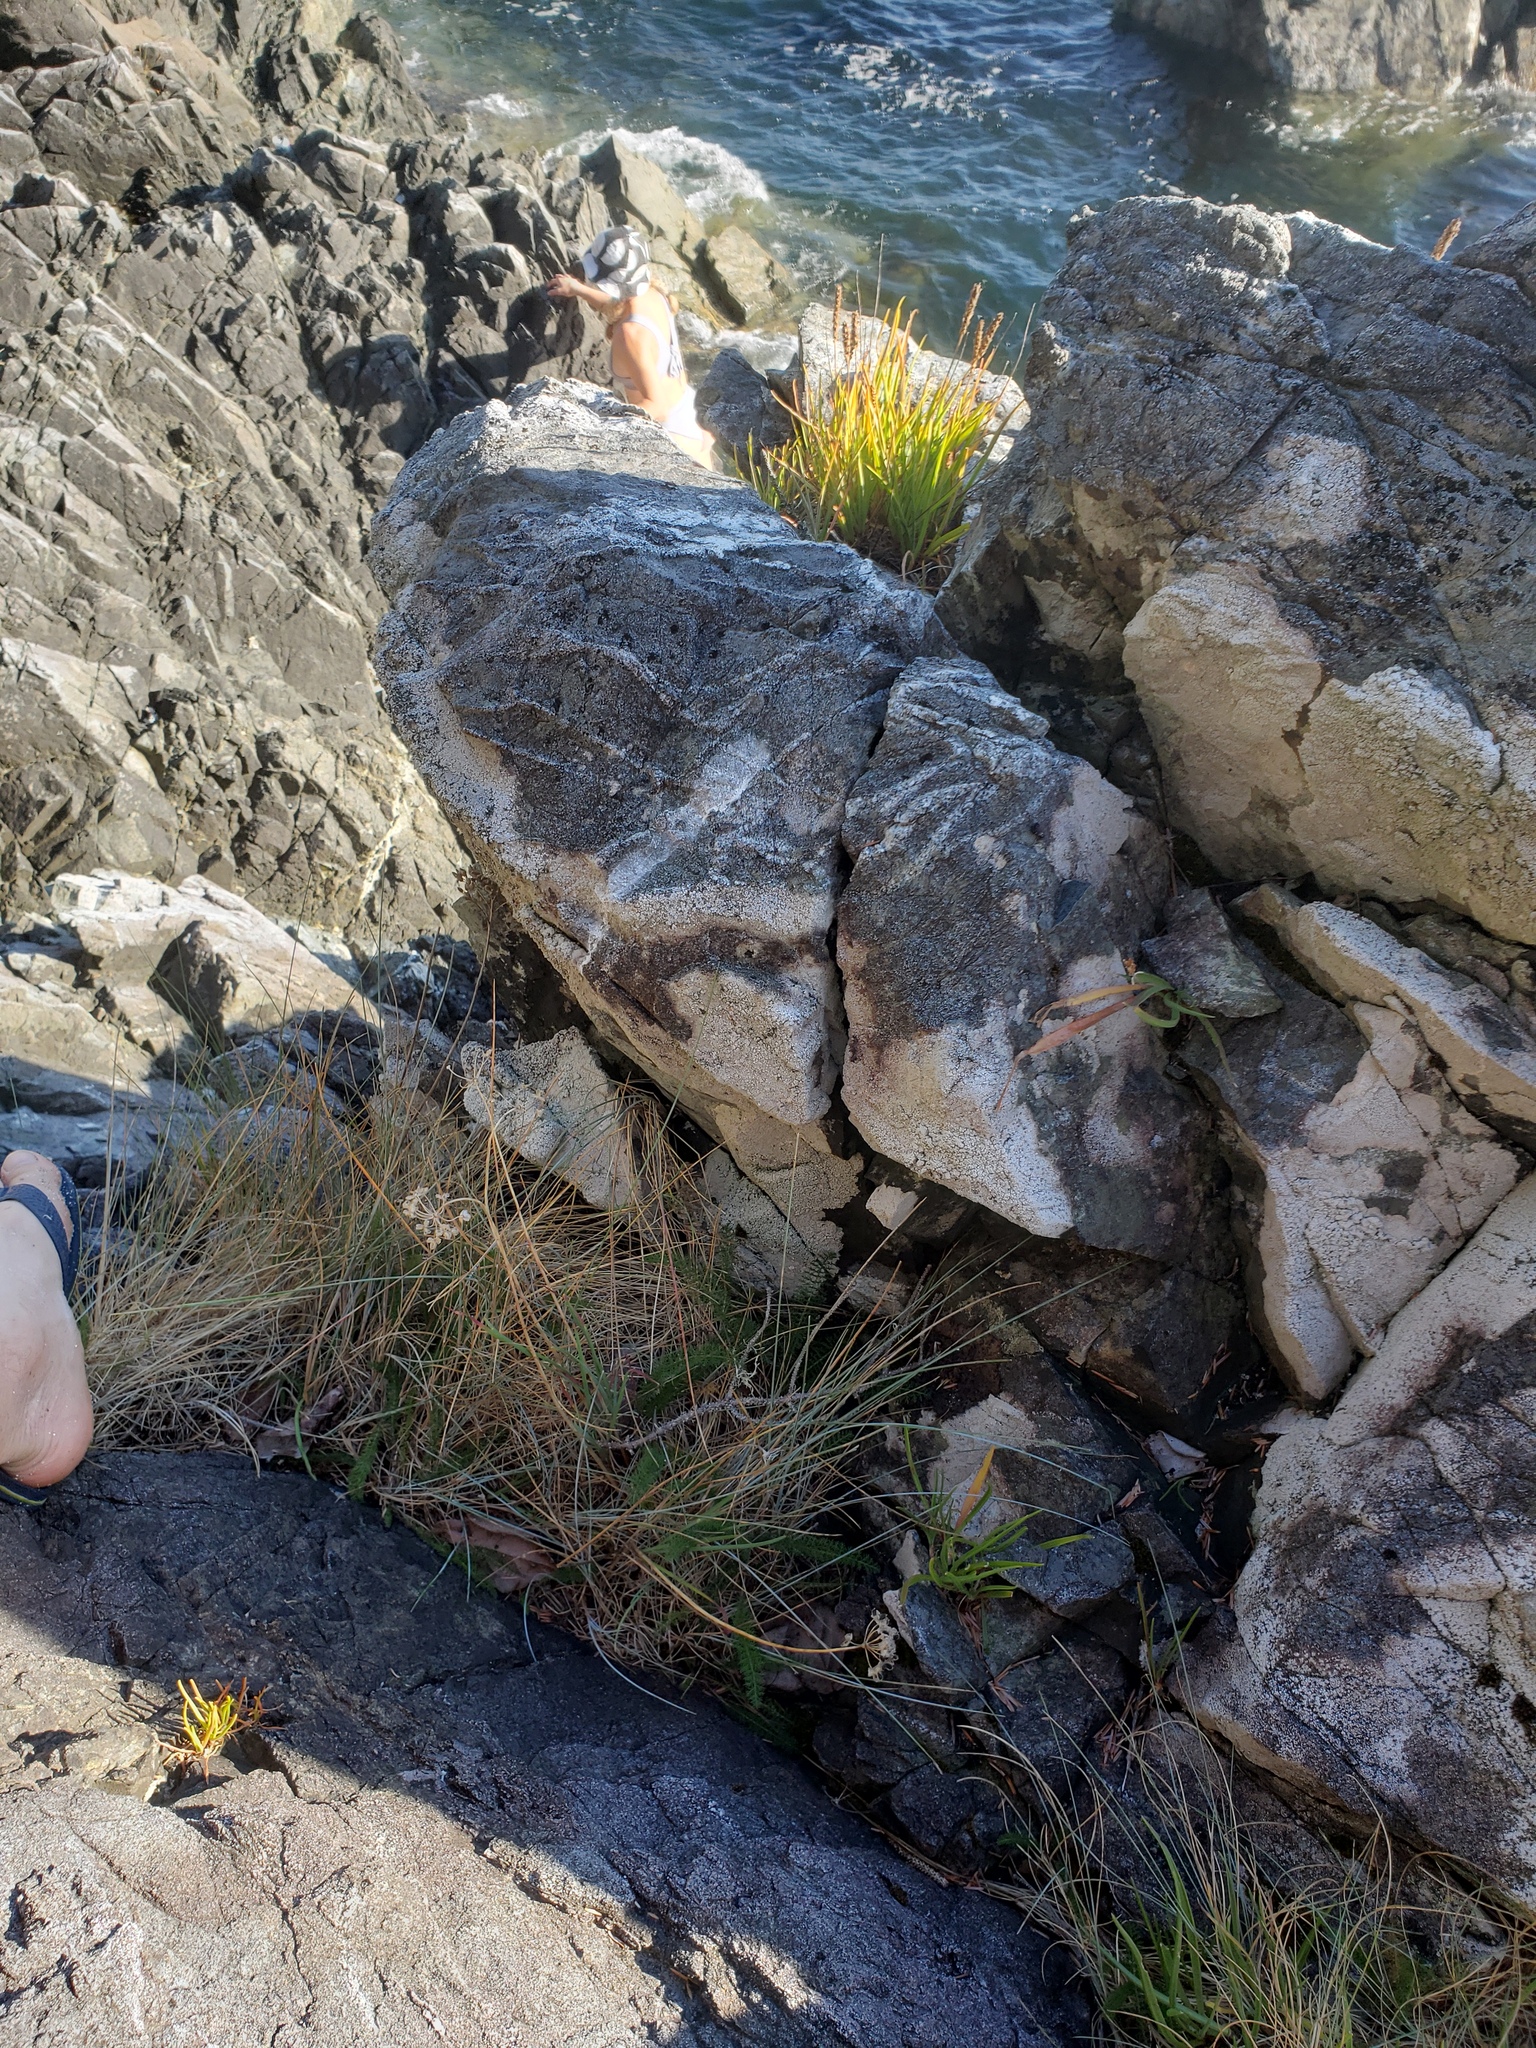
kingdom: Plantae
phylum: Tracheophyta
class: Liliopsida
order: Asparagales
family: Amaryllidaceae
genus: Allium
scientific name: Allium cernuum
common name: Nodding onion
